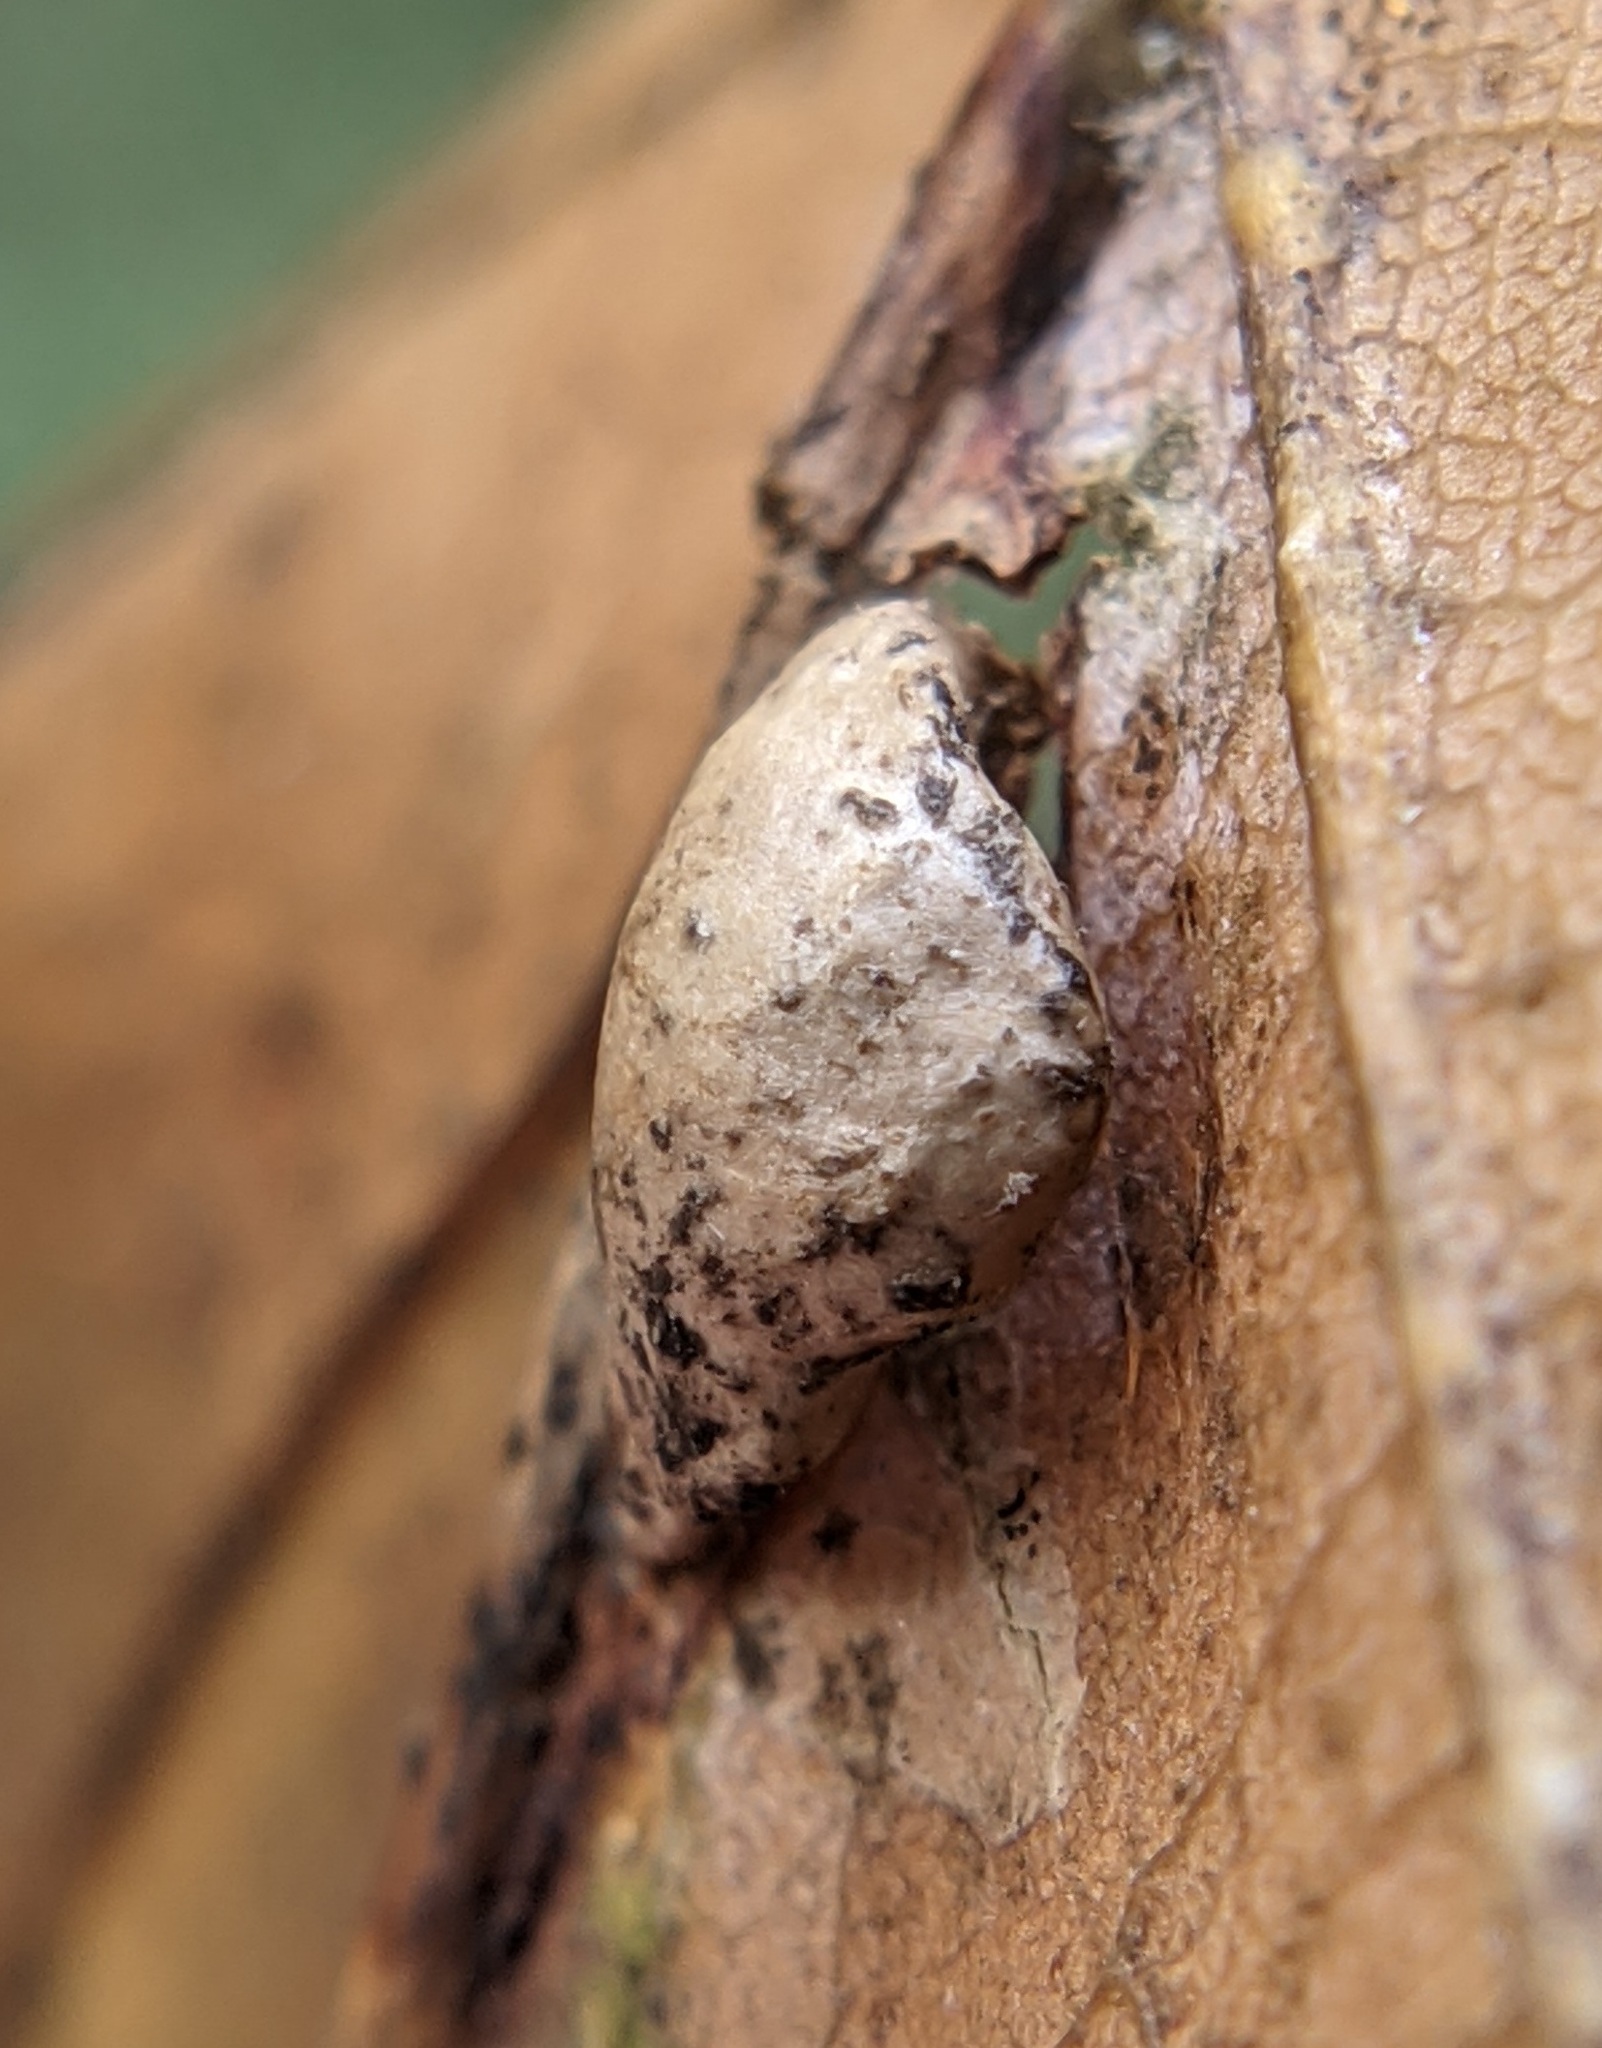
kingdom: Animalia
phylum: Arthropoda
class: Insecta
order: Diptera
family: Cecidomyiidae
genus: Macrodiplosis
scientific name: Macrodiplosis majalis
